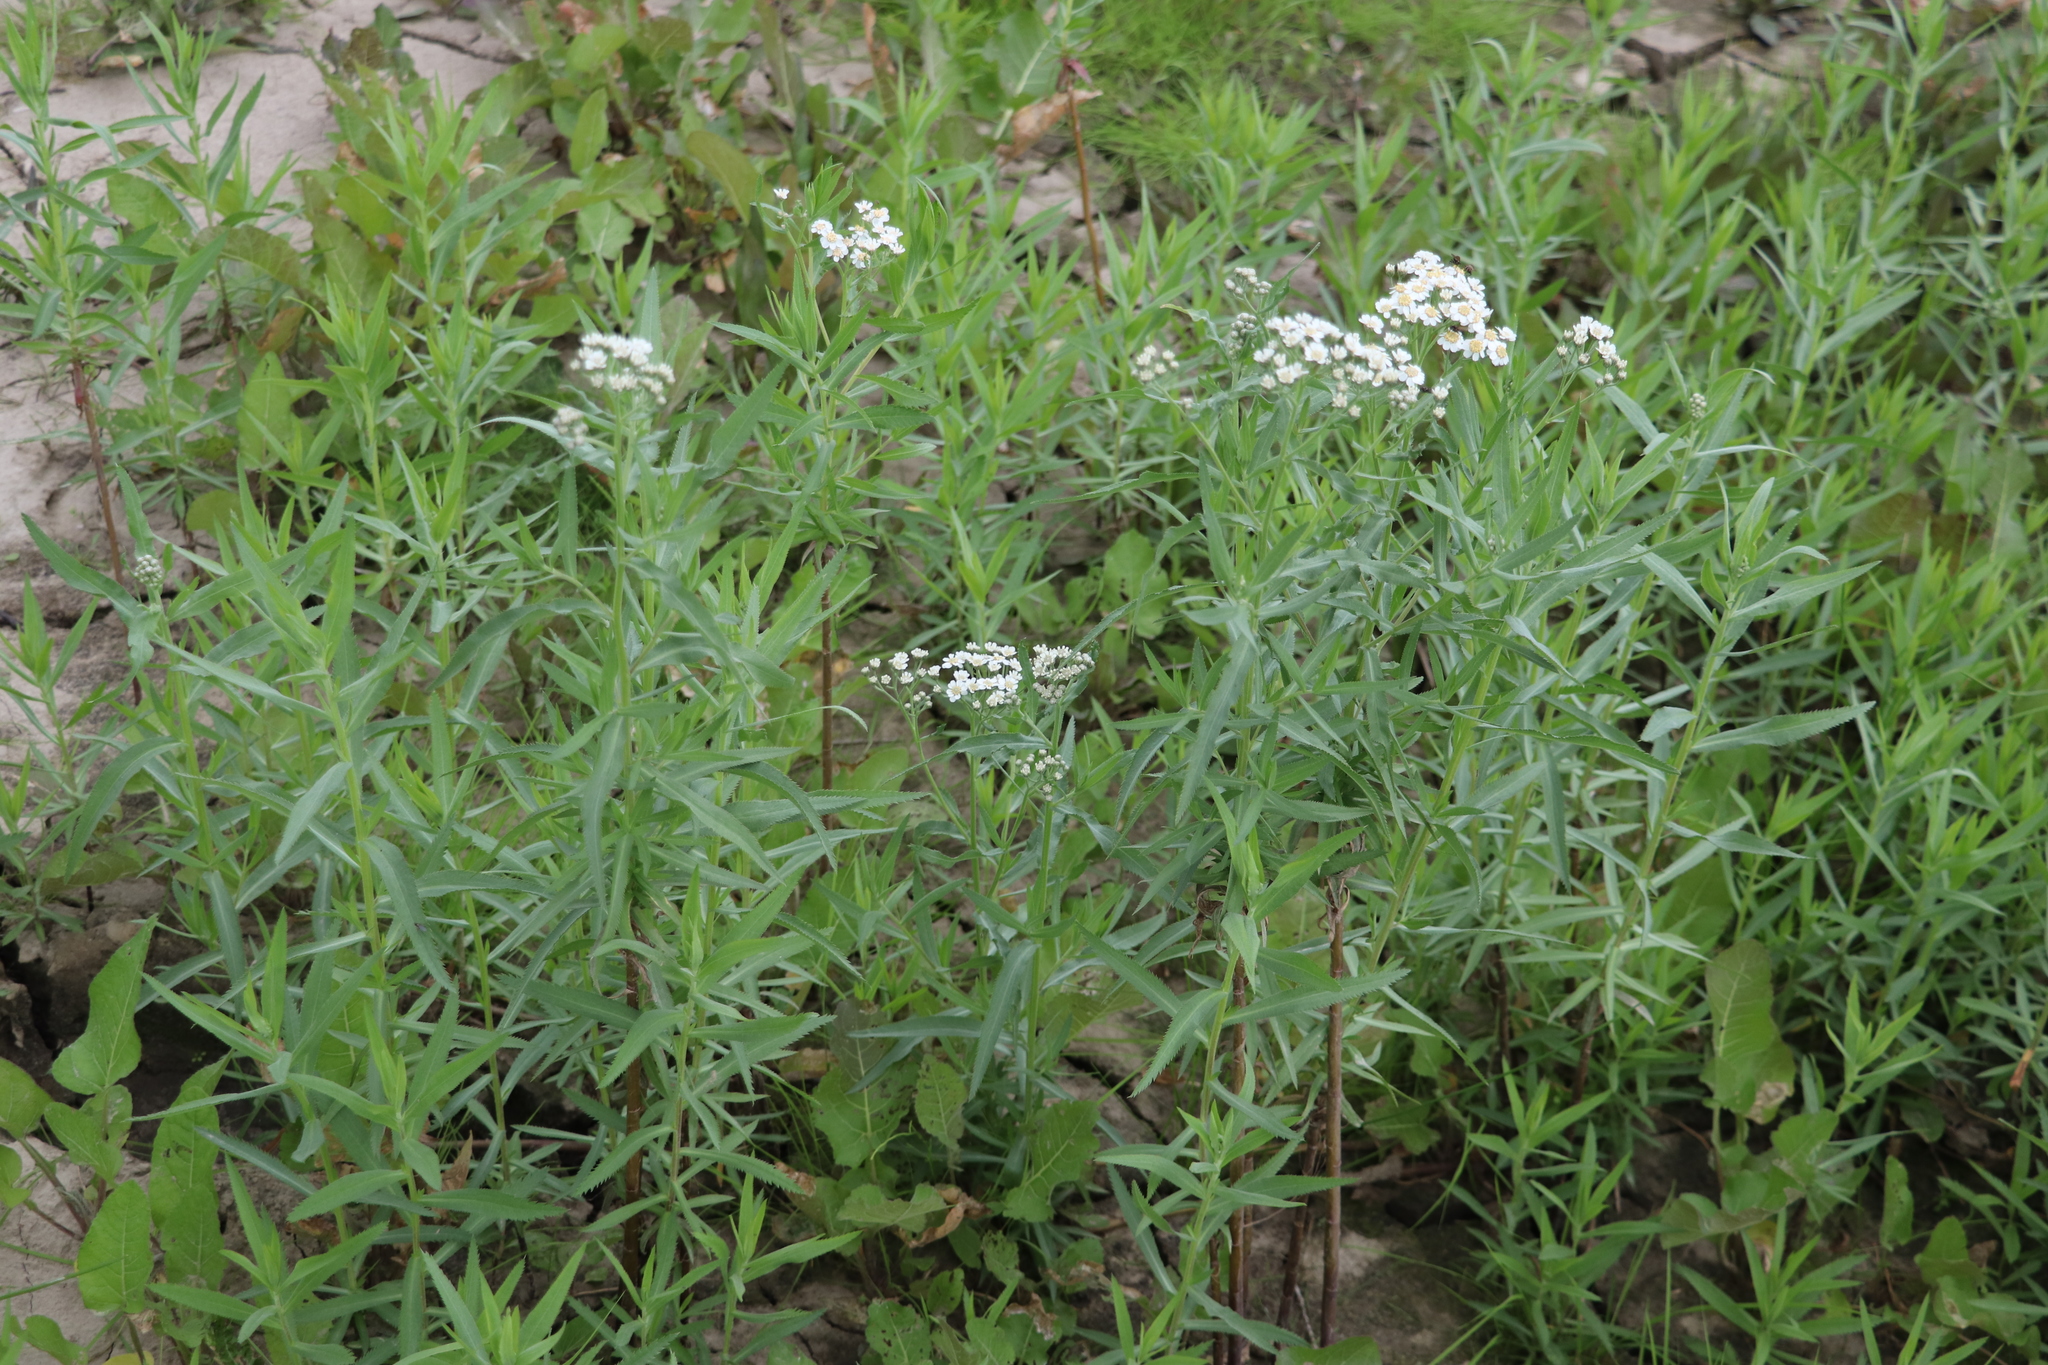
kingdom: Plantae
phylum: Tracheophyta
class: Magnoliopsida
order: Asterales
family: Asteraceae
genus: Achillea
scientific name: Achillea salicifolia
